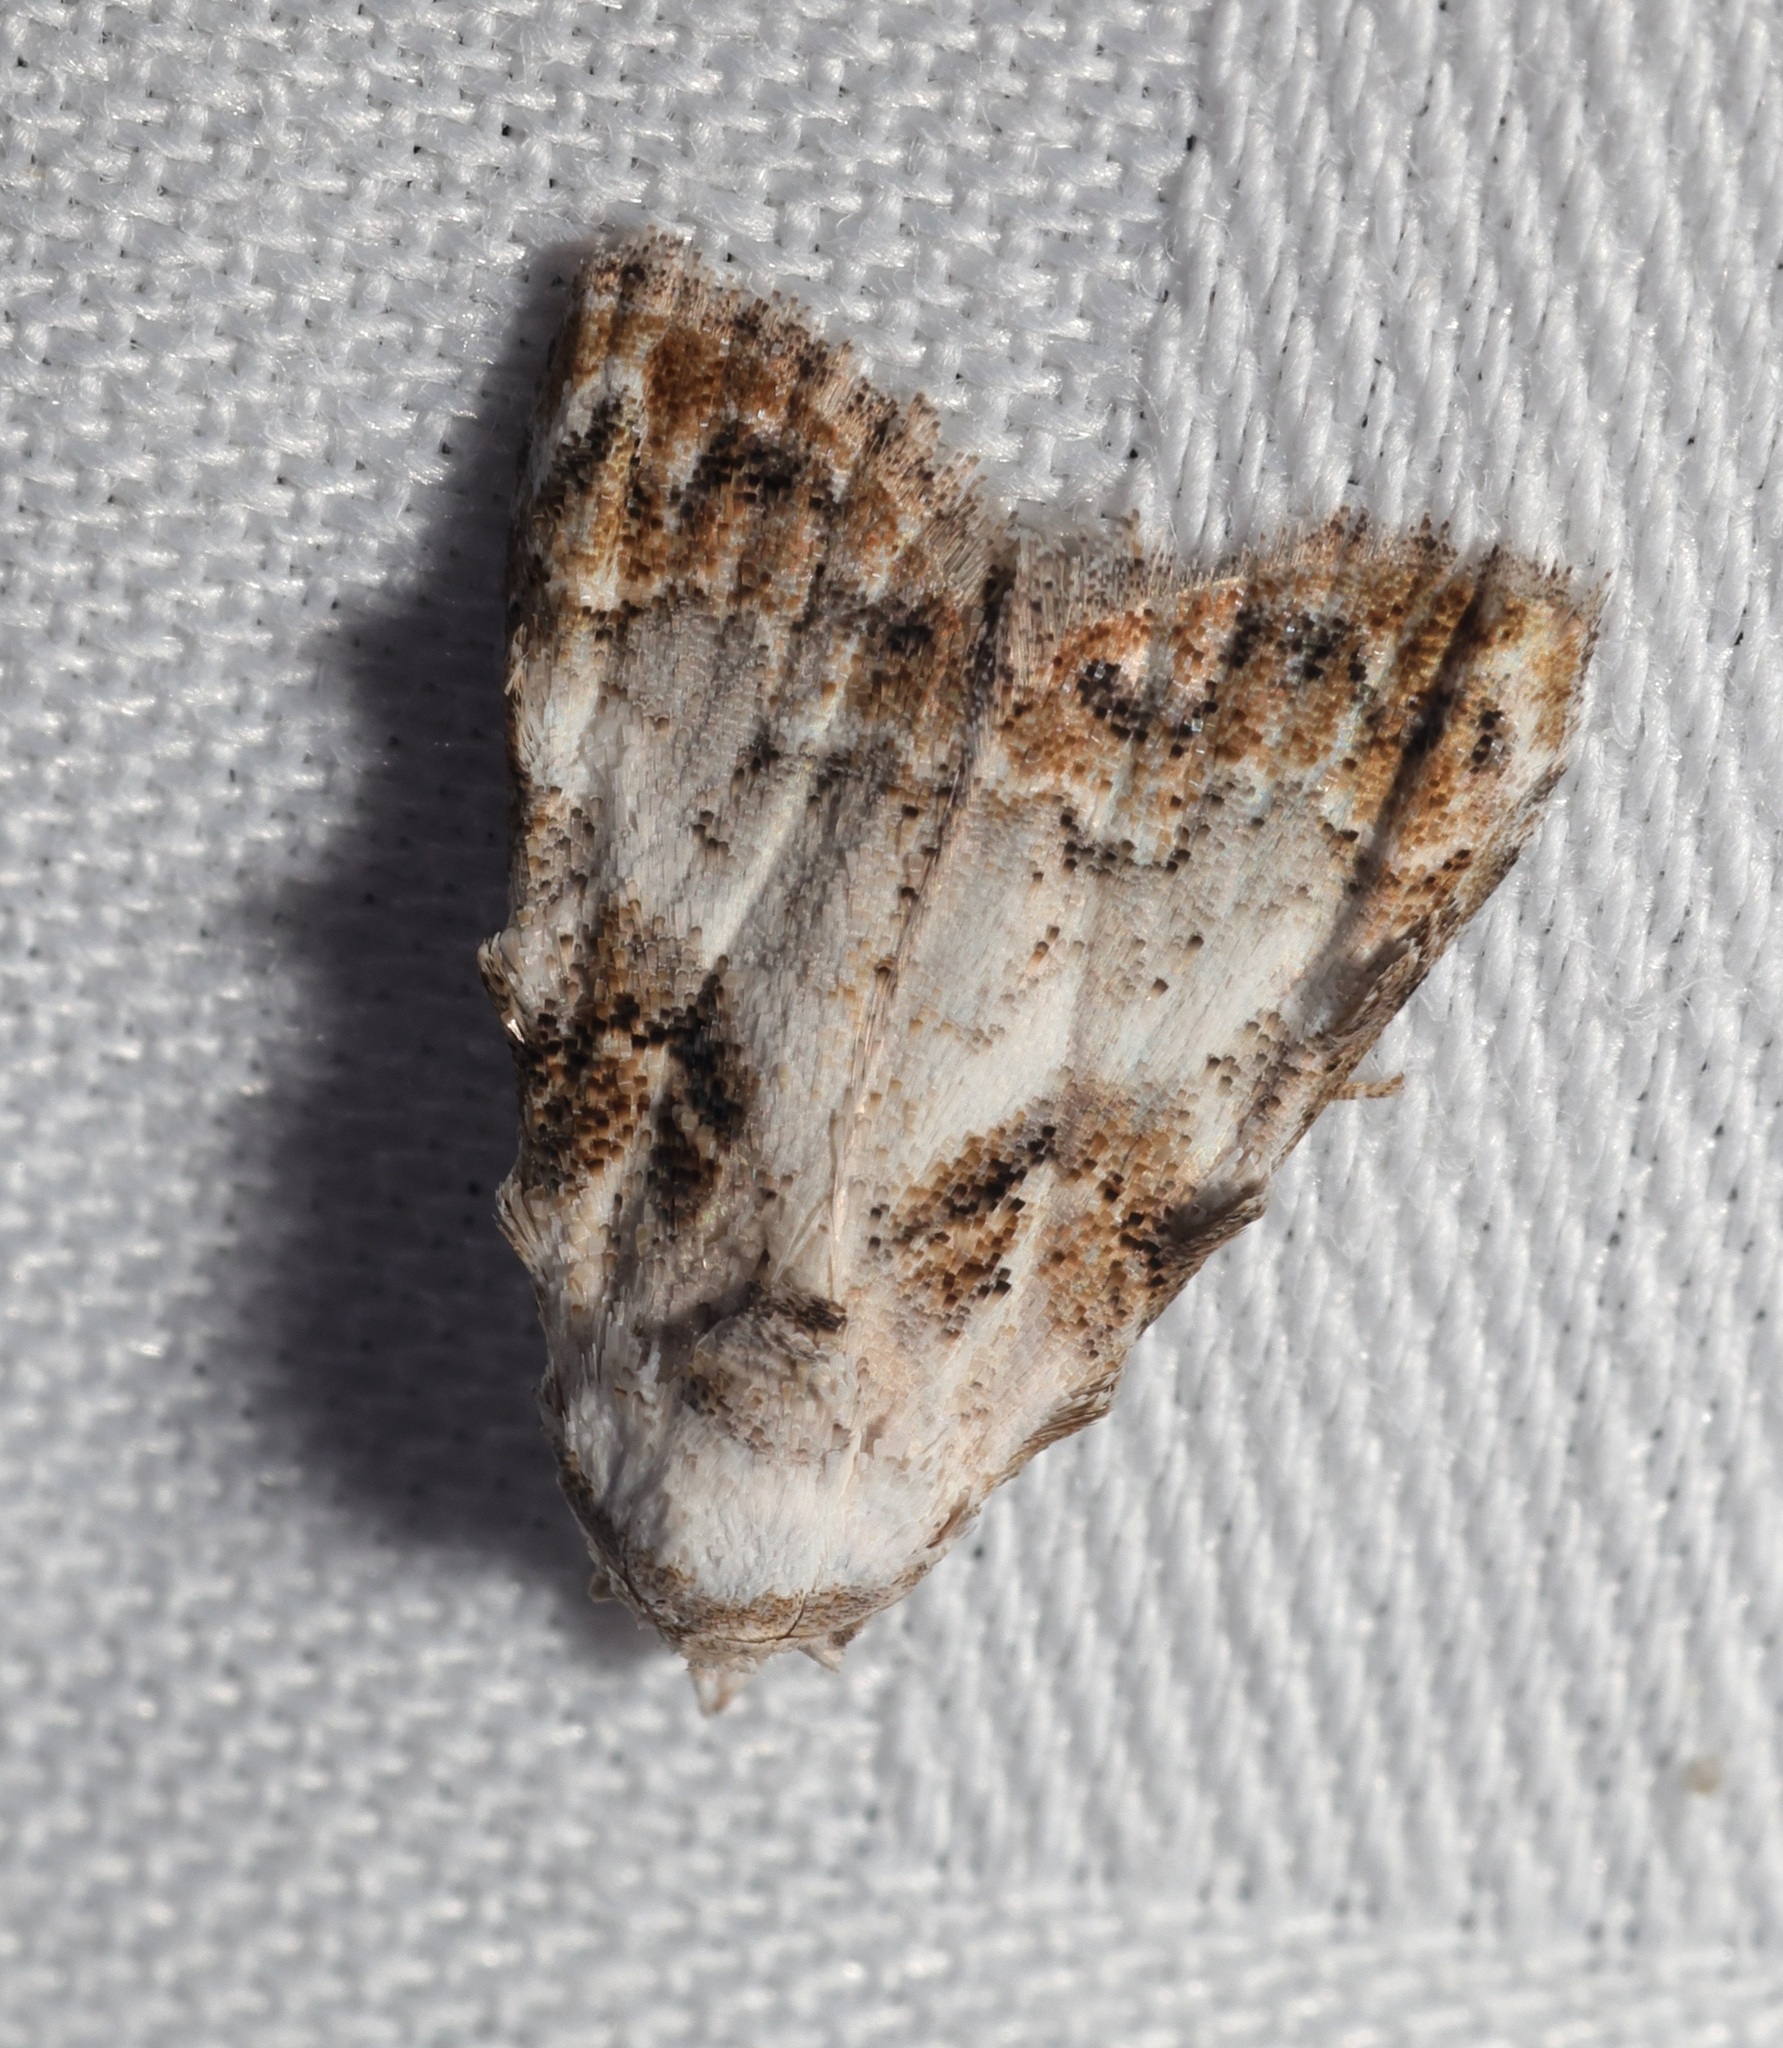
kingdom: Animalia
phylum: Arthropoda
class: Insecta
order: Lepidoptera
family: Nolidae
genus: Nola
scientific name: Nola kanshireiensis
